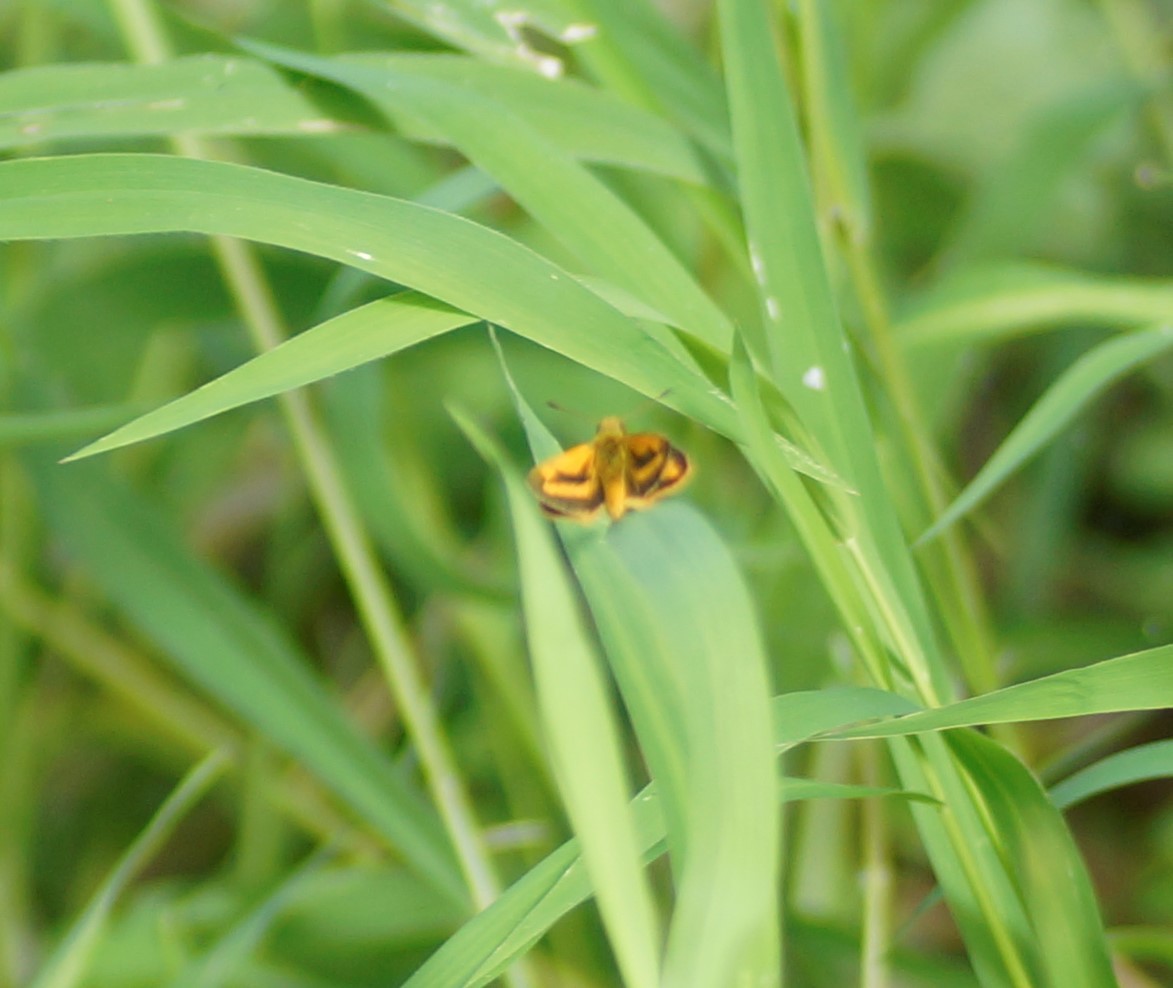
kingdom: Animalia
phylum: Arthropoda
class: Insecta
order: Lepidoptera
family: Hesperiidae
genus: Ocybadistes
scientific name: Ocybadistes walkeri
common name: Yellow-banded dart
